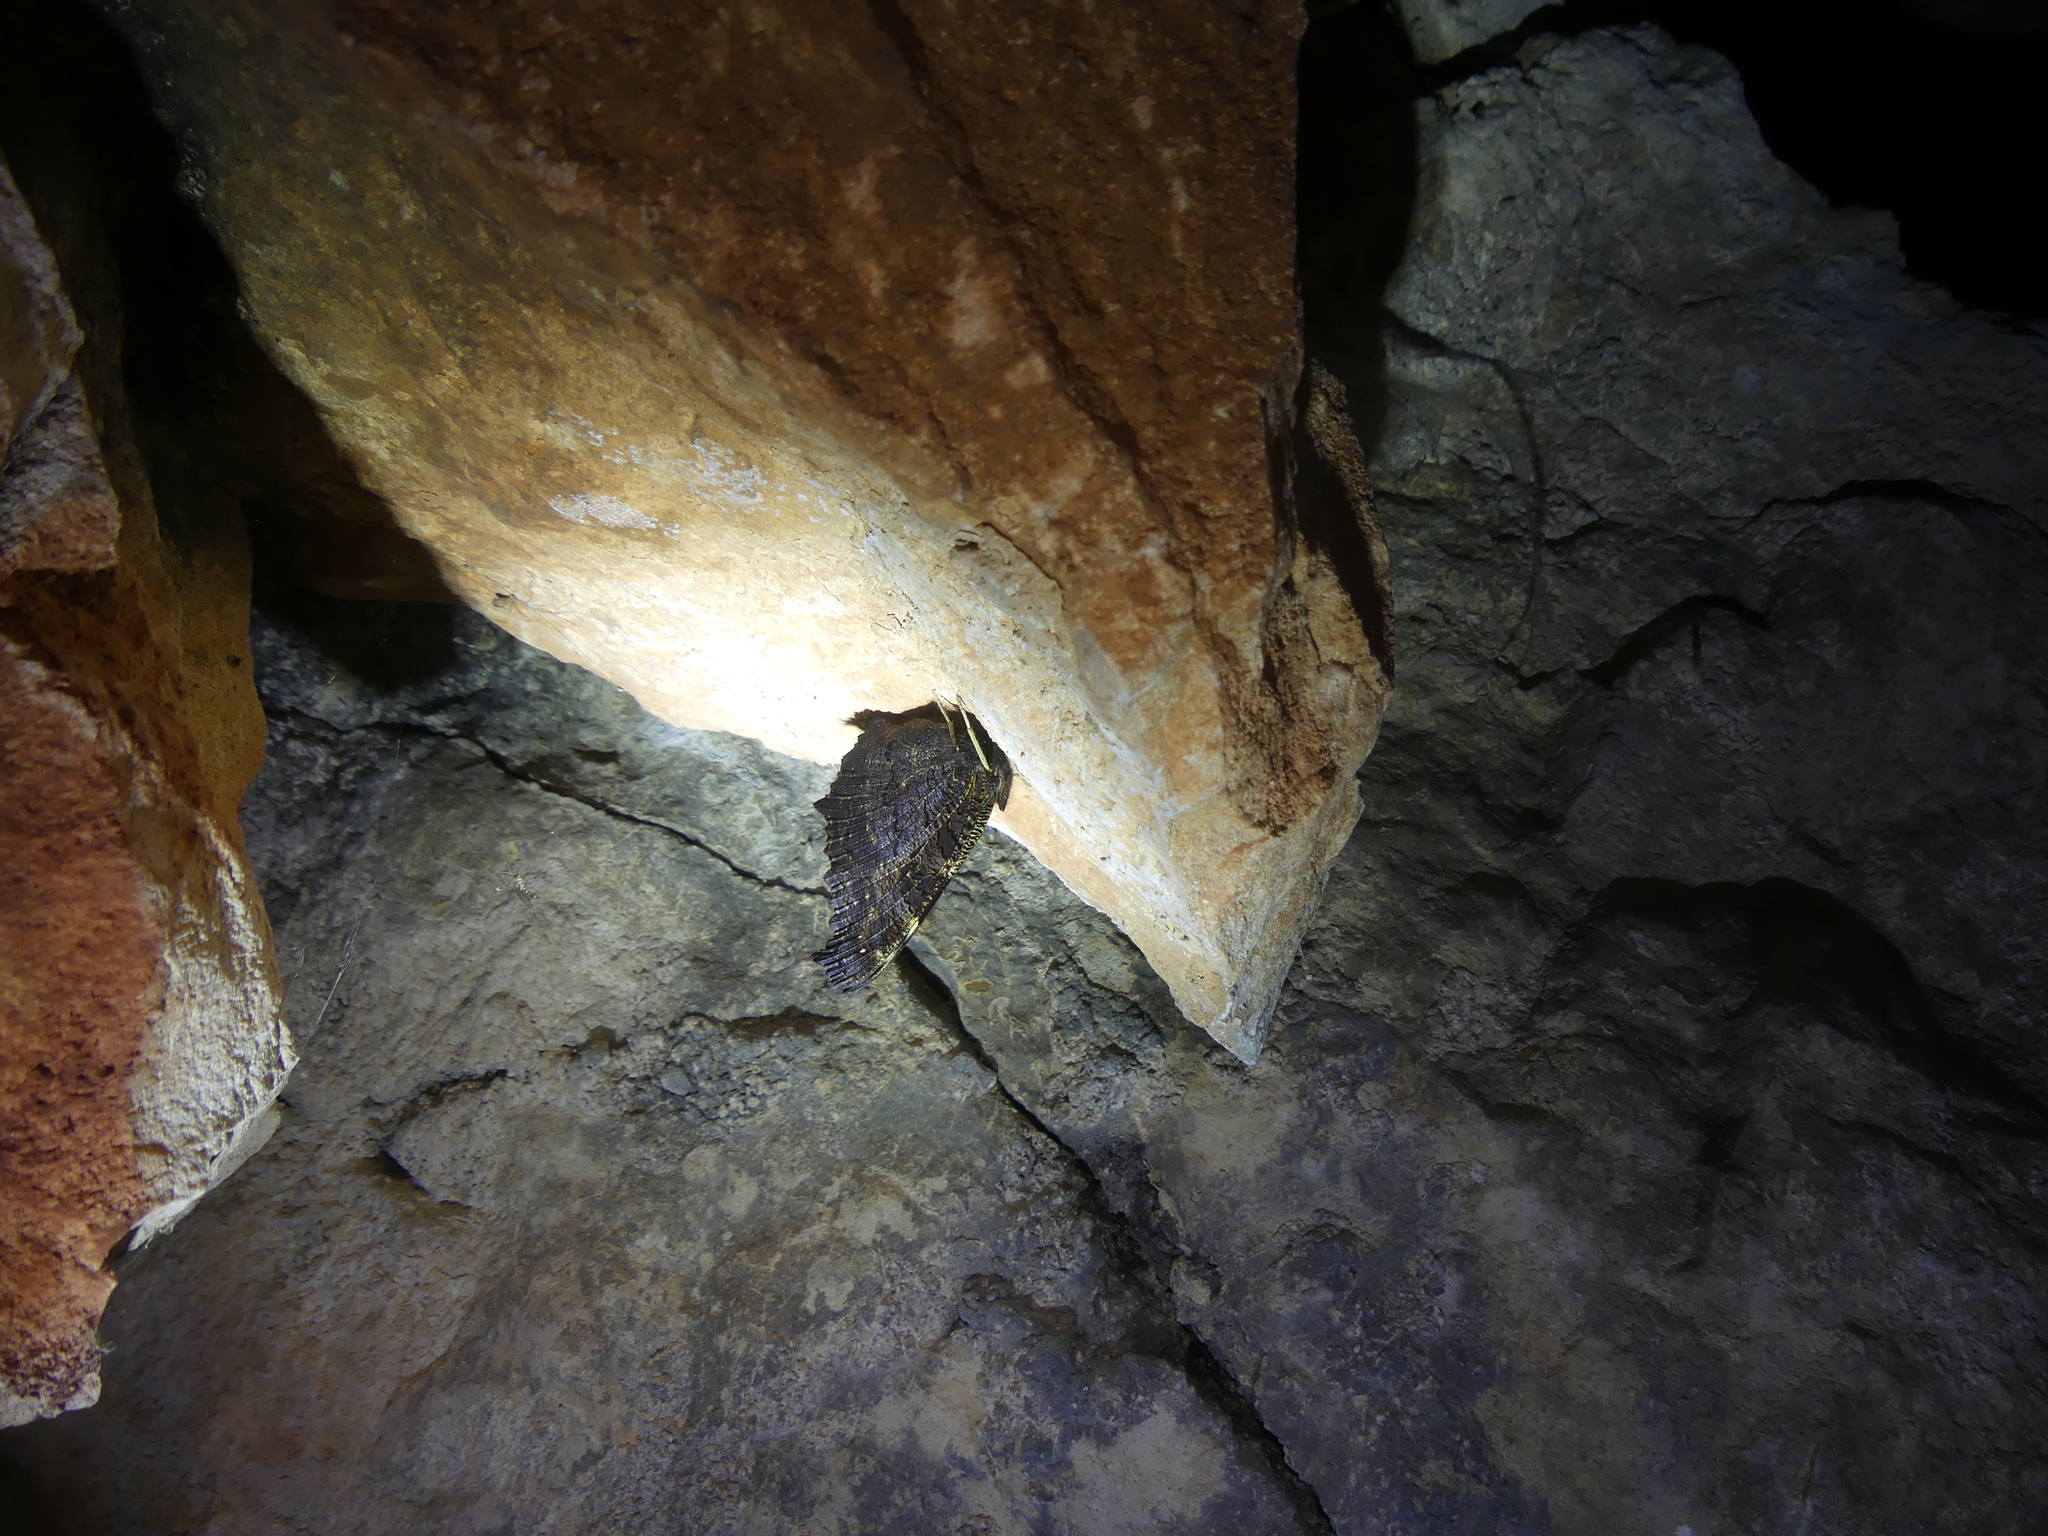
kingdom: Animalia
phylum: Arthropoda
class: Insecta
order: Lepidoptera
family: Nymphalidae
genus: Aglais
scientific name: Aglais io
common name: Peacock
